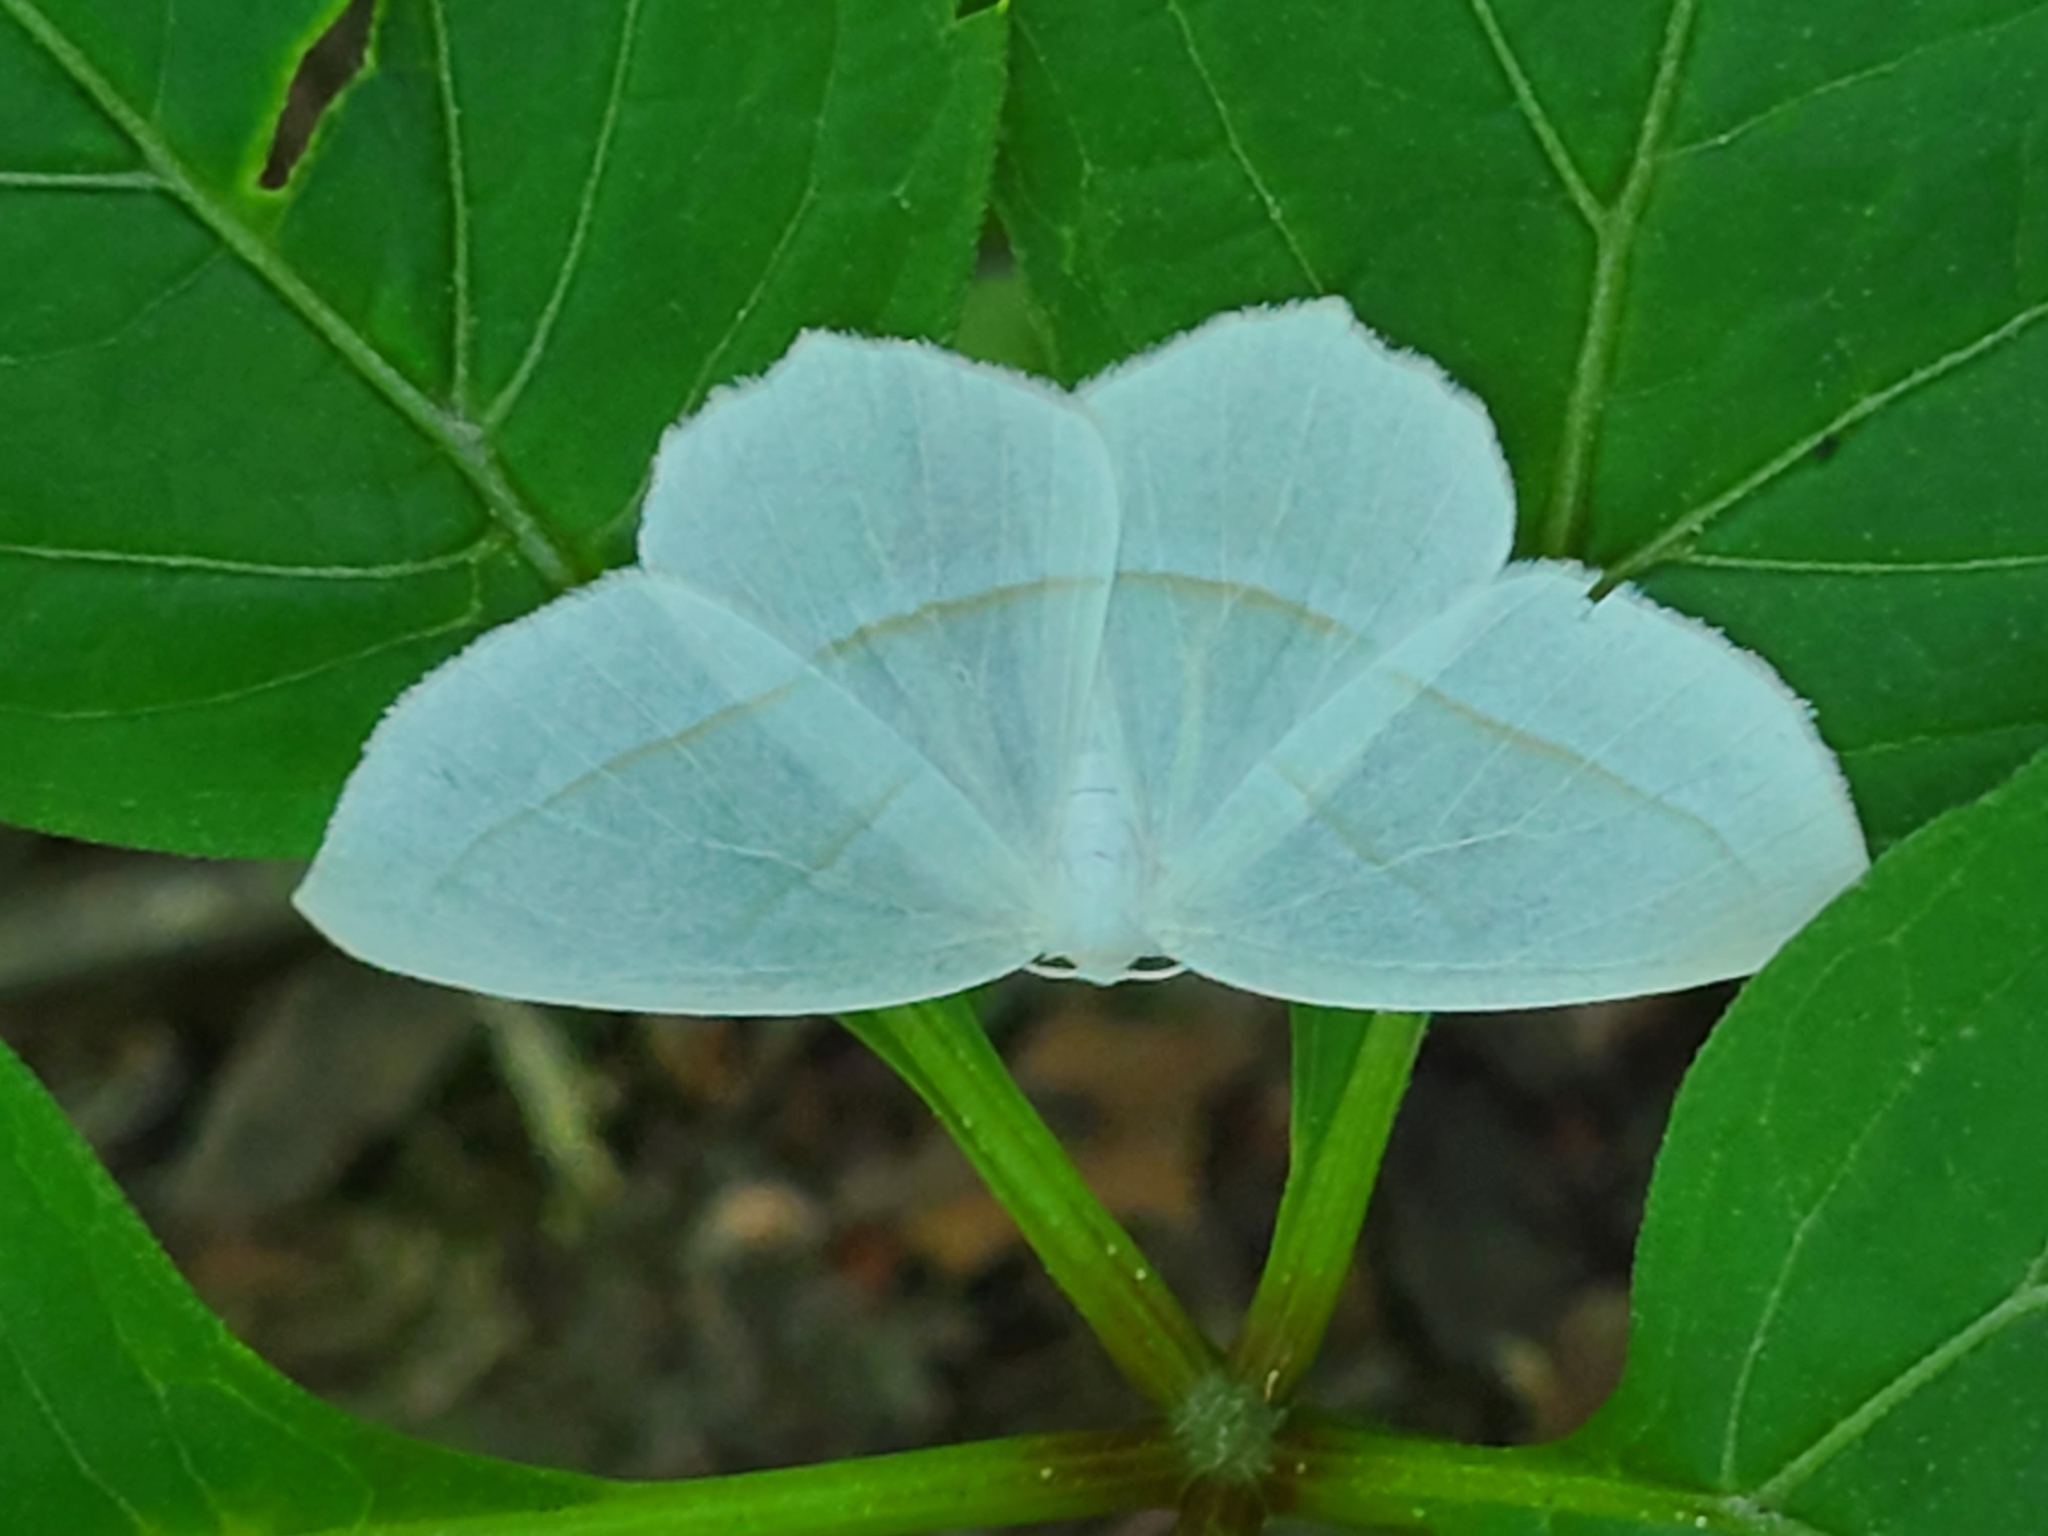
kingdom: Animalia
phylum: Arthropoda
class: Insecta
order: Lepidoptera
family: Geometridae
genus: Campaea
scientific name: Campaea perlata
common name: Fringed looper
